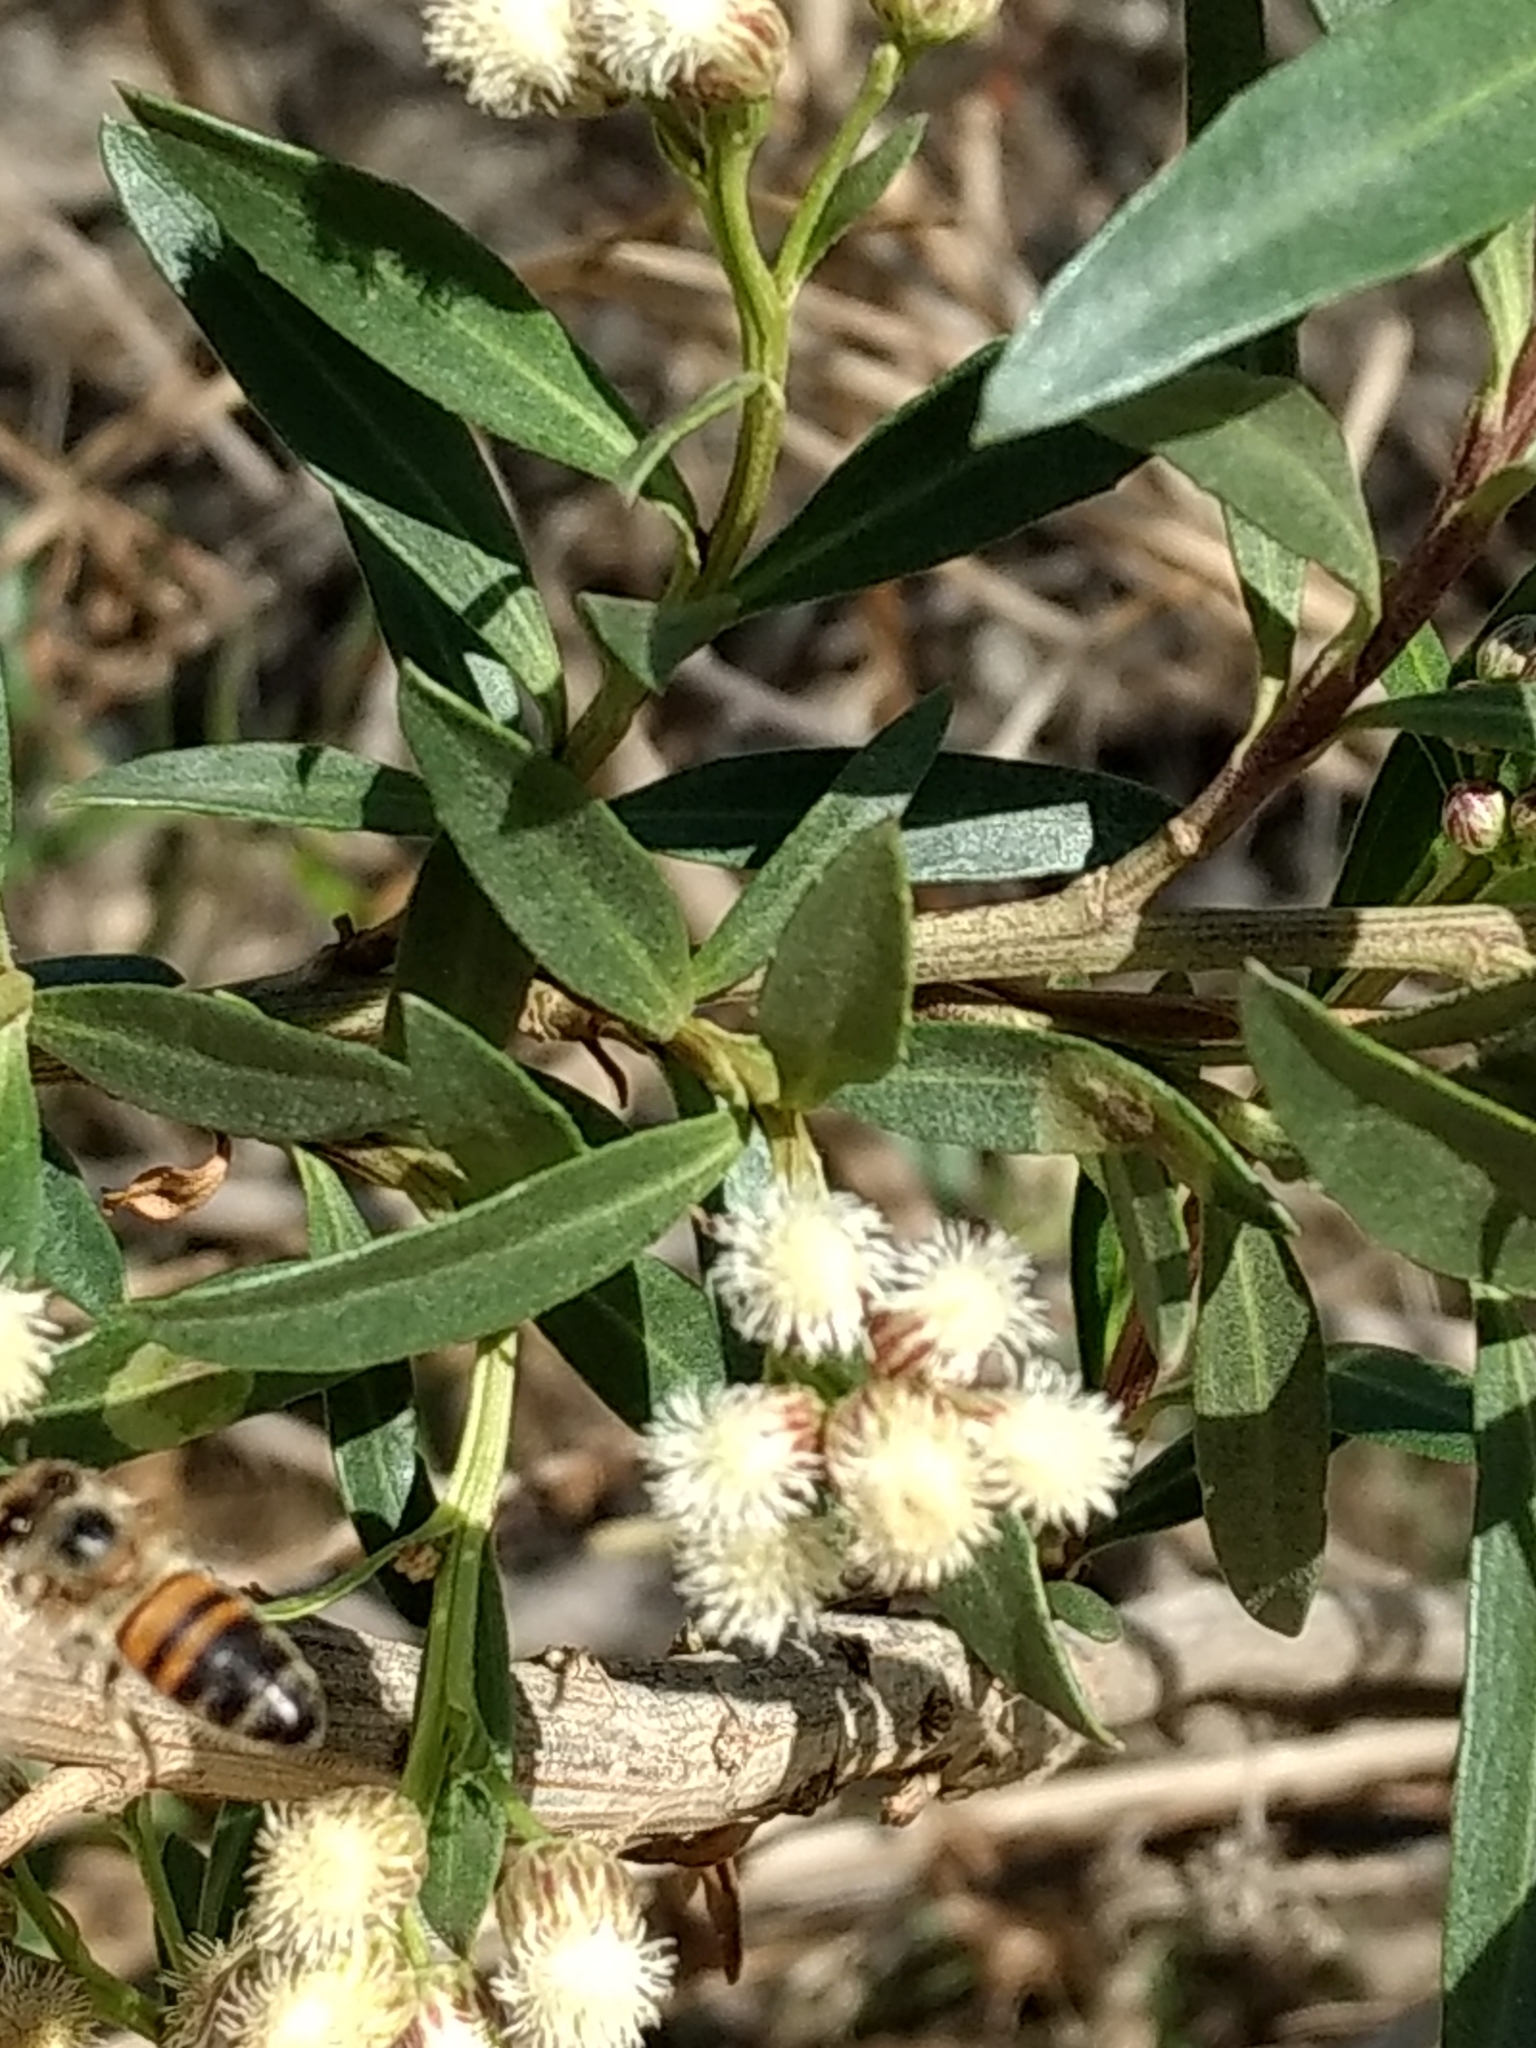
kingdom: Animalia
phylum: Arthropoda
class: Insecta
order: Hymenoptera
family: Apidae
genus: Apis
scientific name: Apis mellifera
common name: Honey bee
